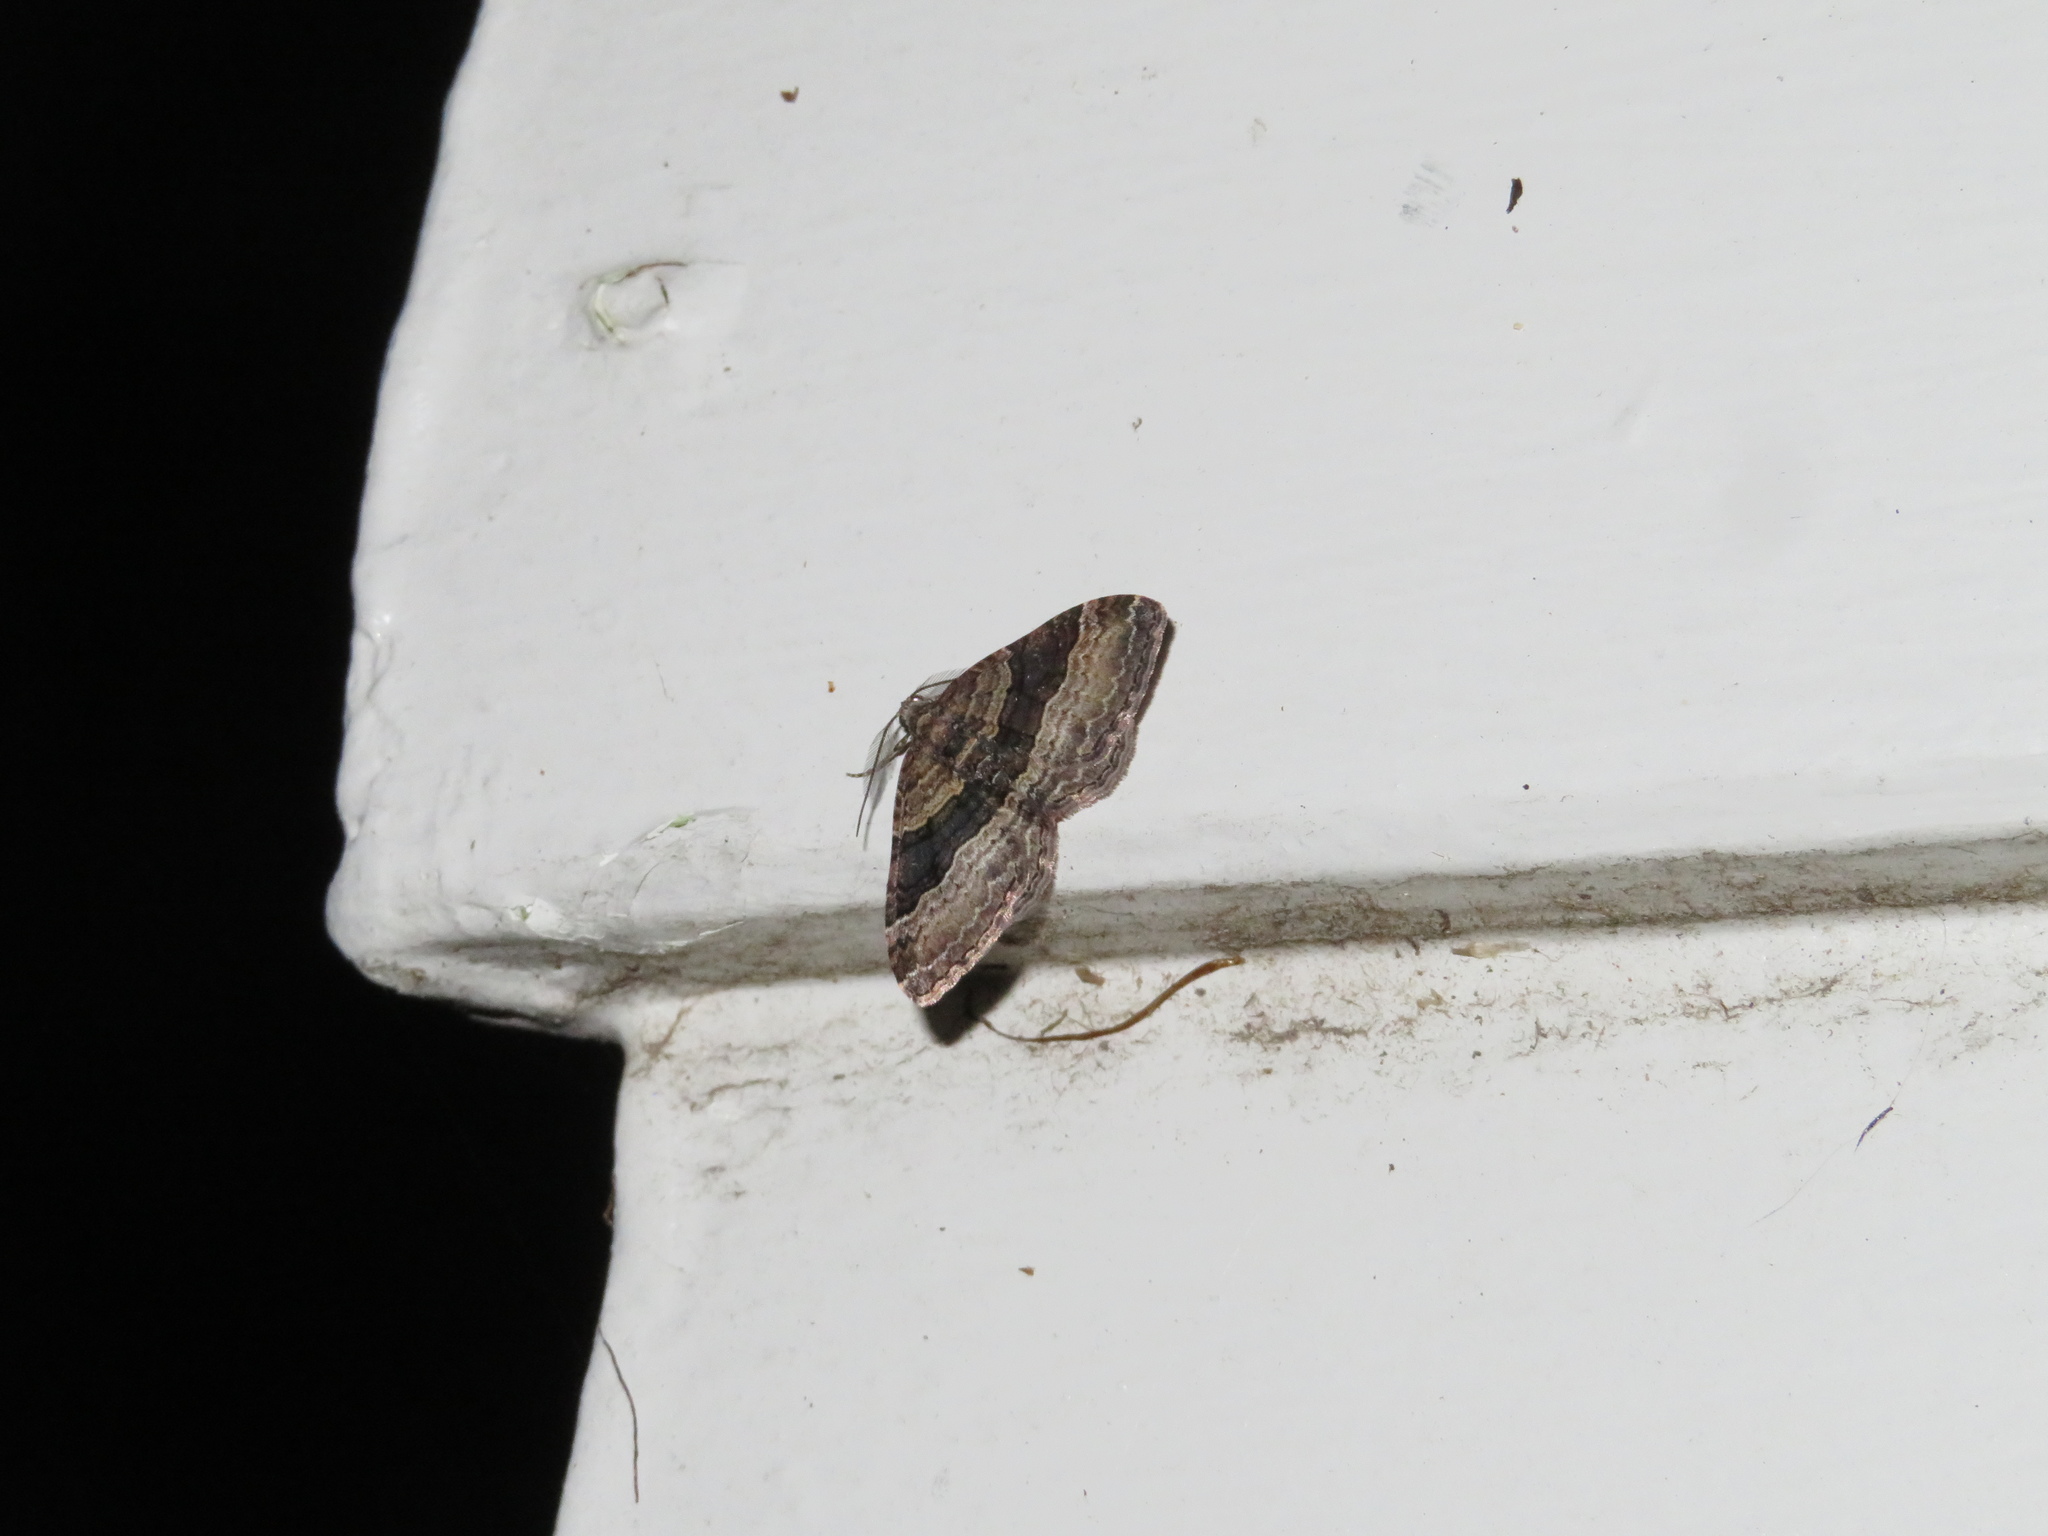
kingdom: Animalia
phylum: Arthropoda
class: Insecta
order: Lepidoptera
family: Geometridae
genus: Epyaxa
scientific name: Epyaxa lucidata
